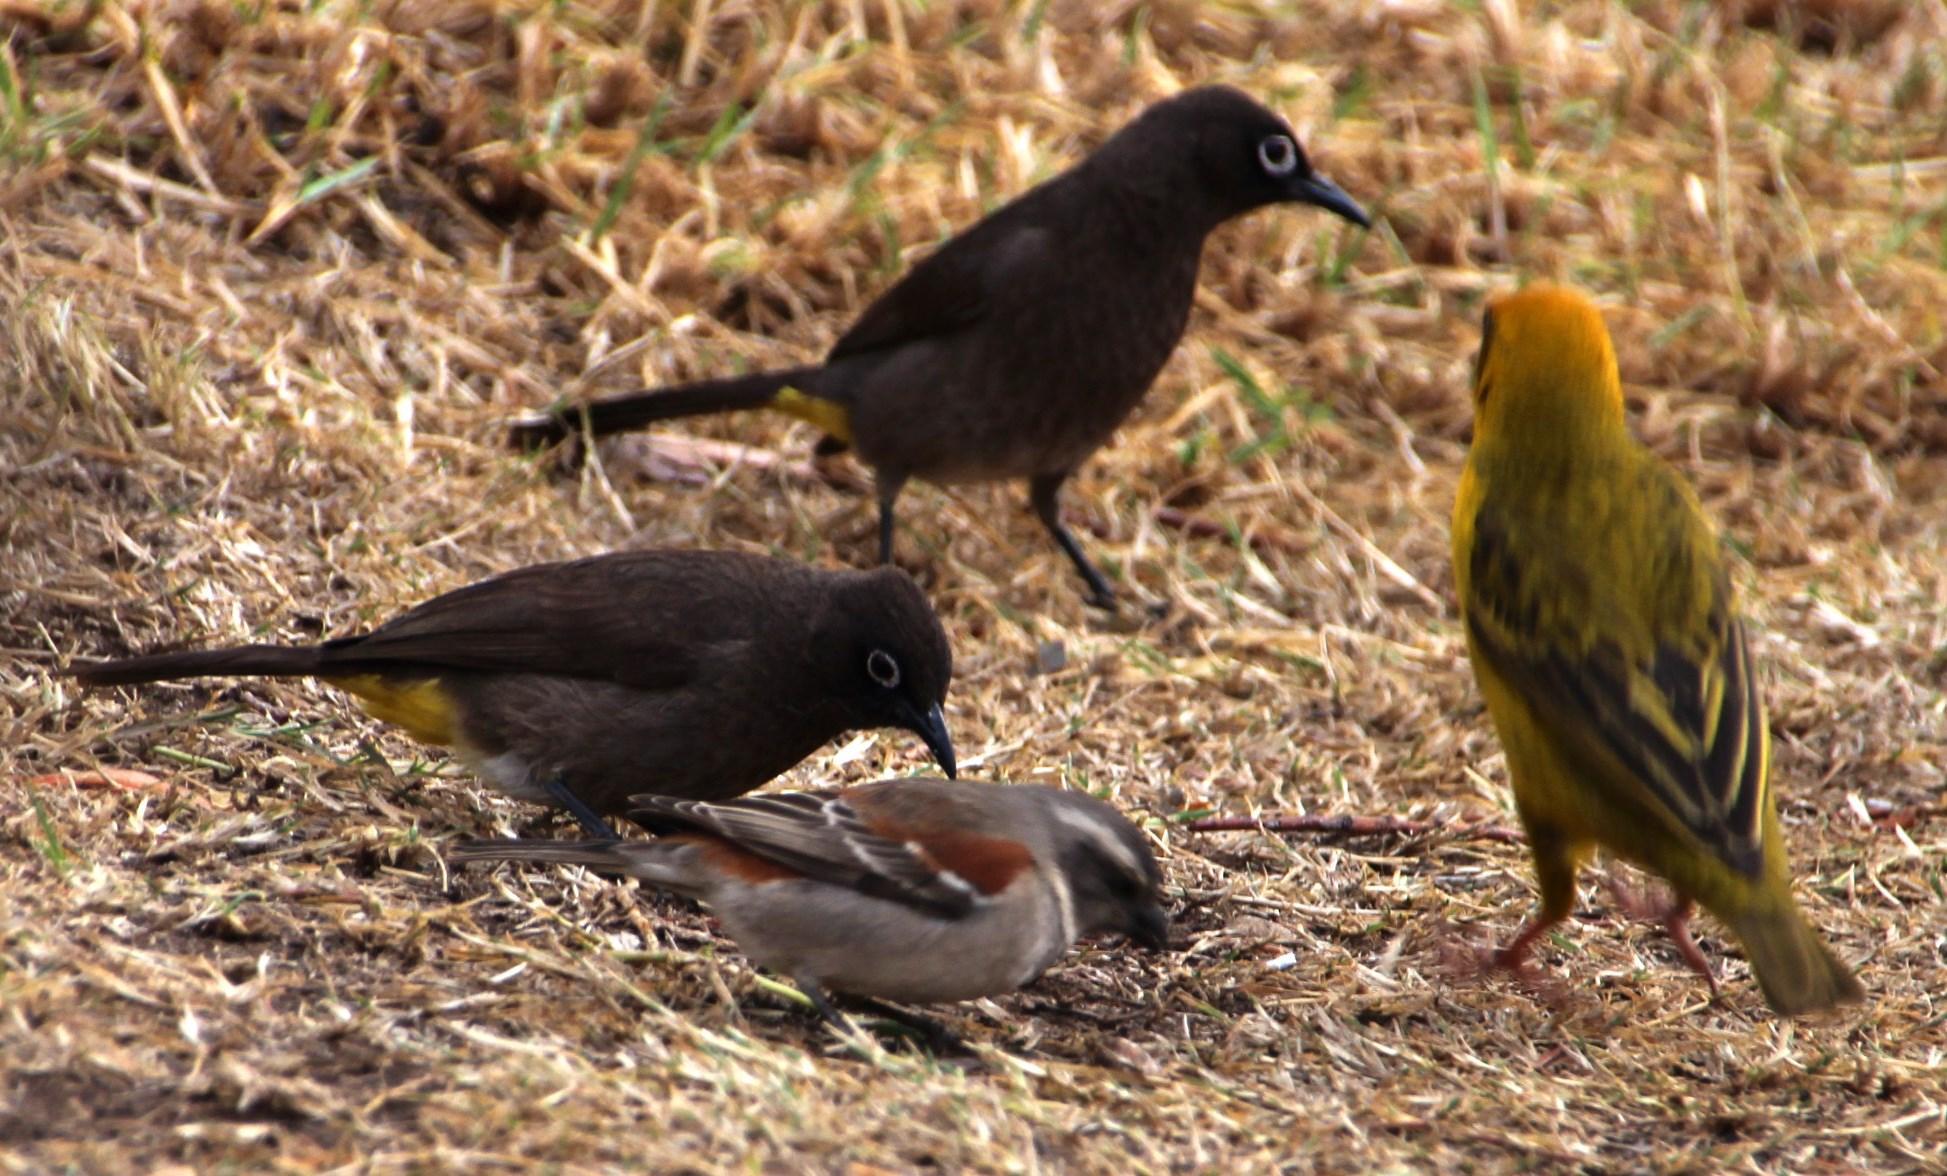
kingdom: Animalia
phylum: Chordata
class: Aves
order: Passeriformes
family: Pycnonotidae
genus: Pycnonotus
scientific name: Pycnonotus capensis
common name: Cape bulbul
